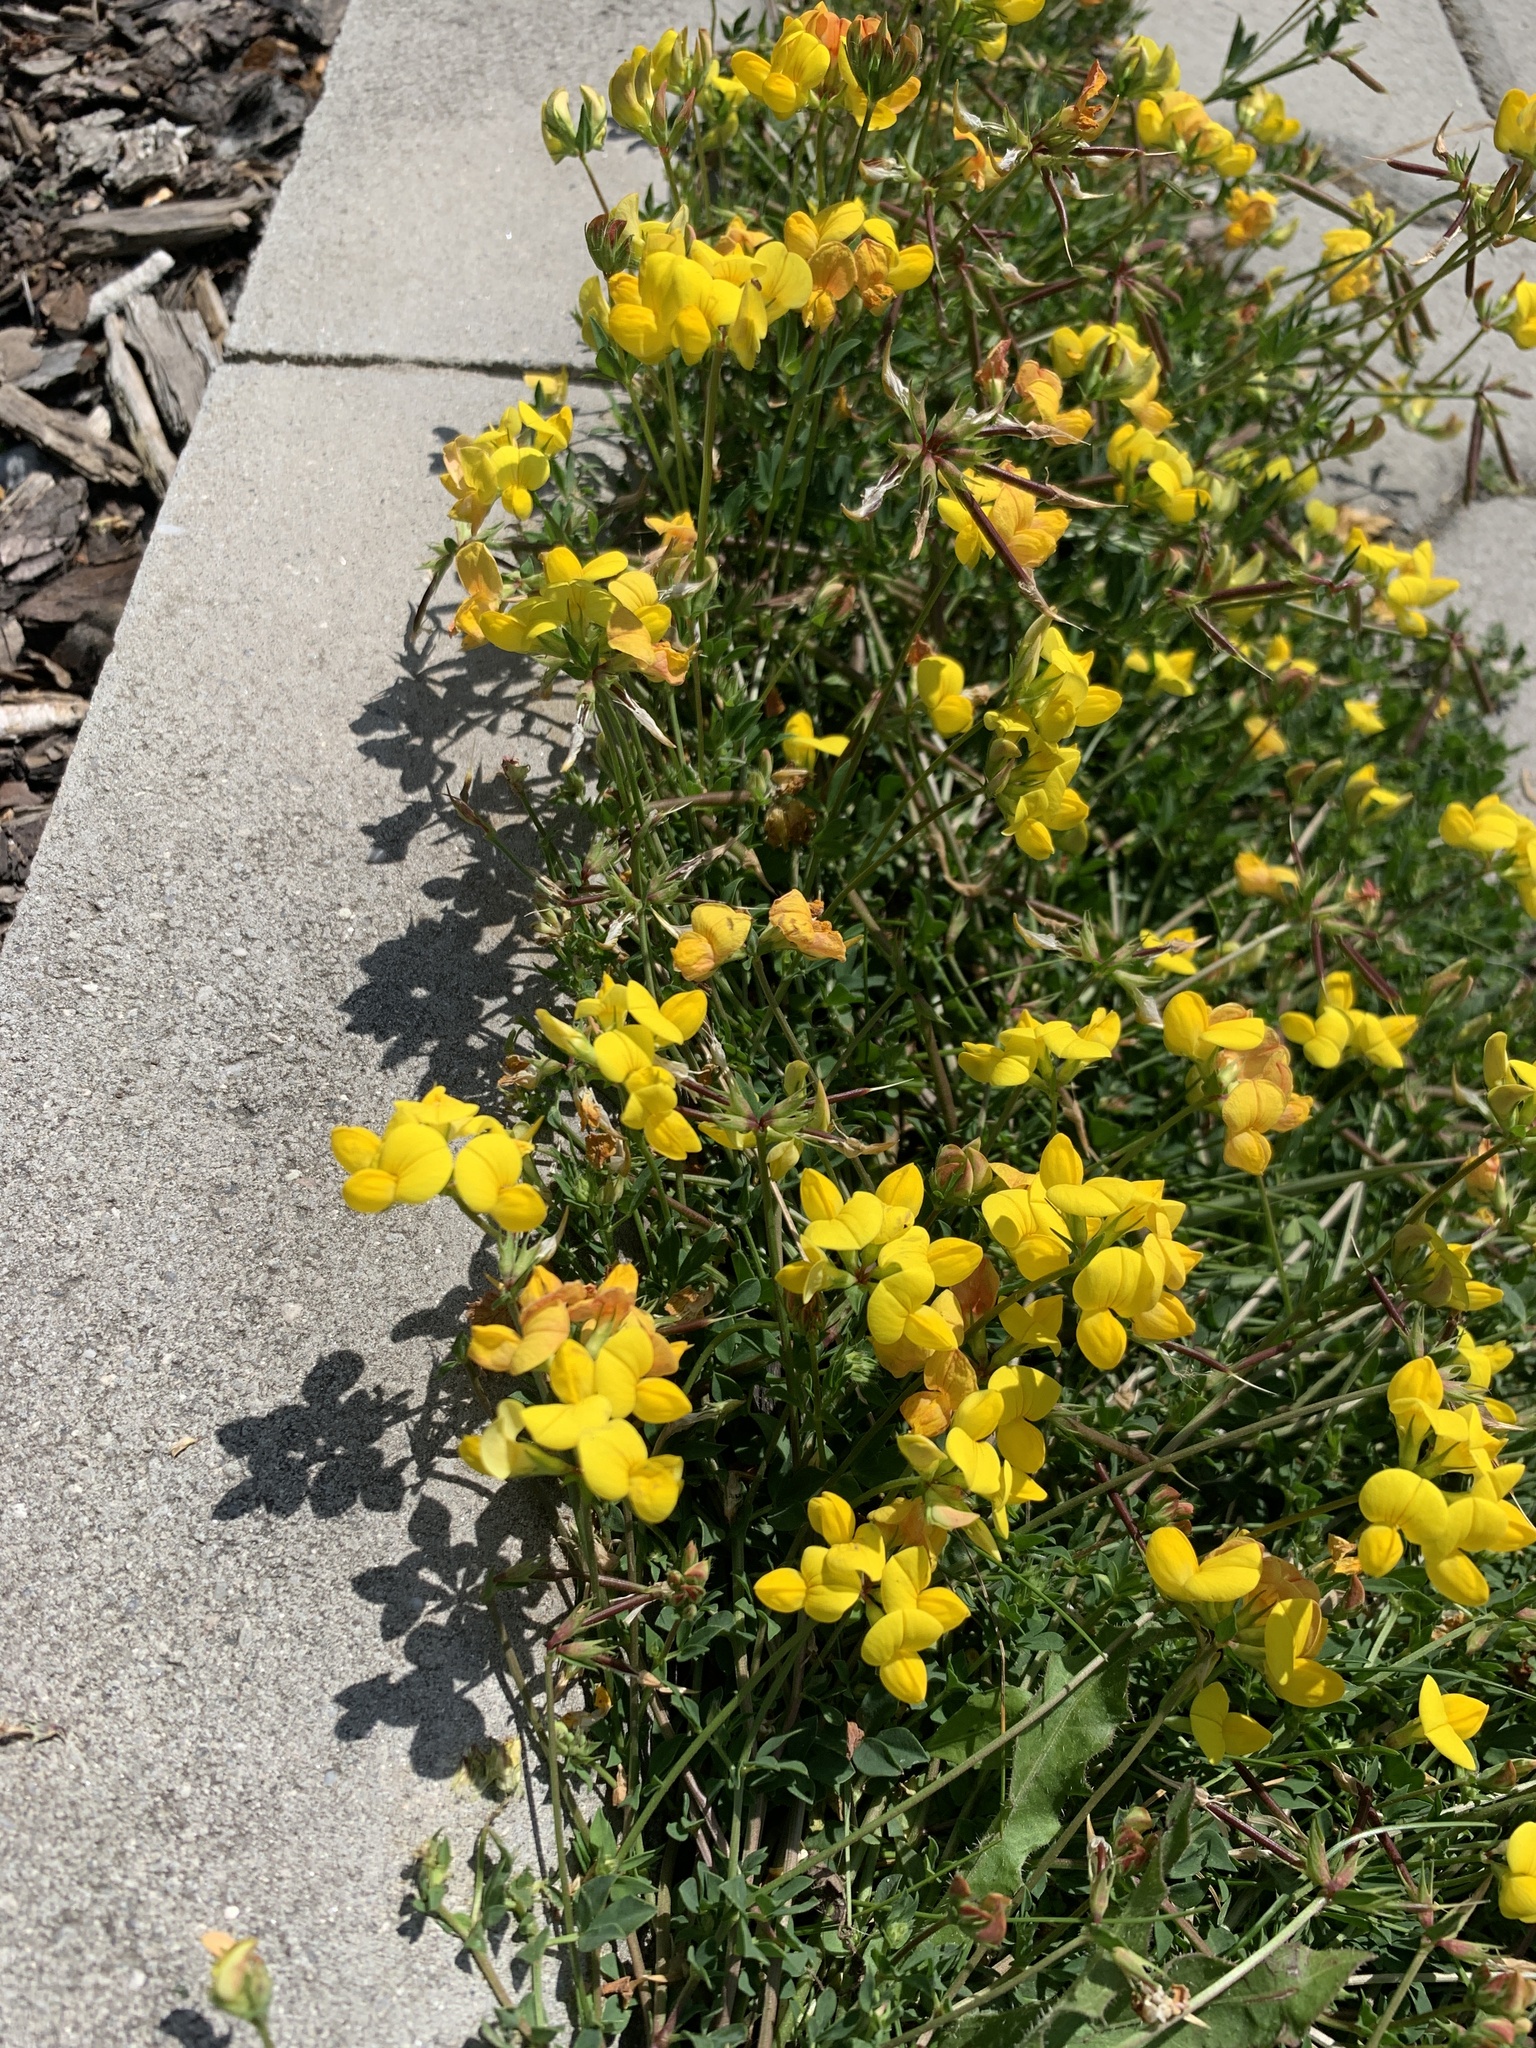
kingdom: Plantae
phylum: Tracheophyta
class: Magnoliopsida
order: Fabales
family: Fabaceae
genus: Lotus
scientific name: Lotus corniculatus
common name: Common bird's-foot-trefoil
